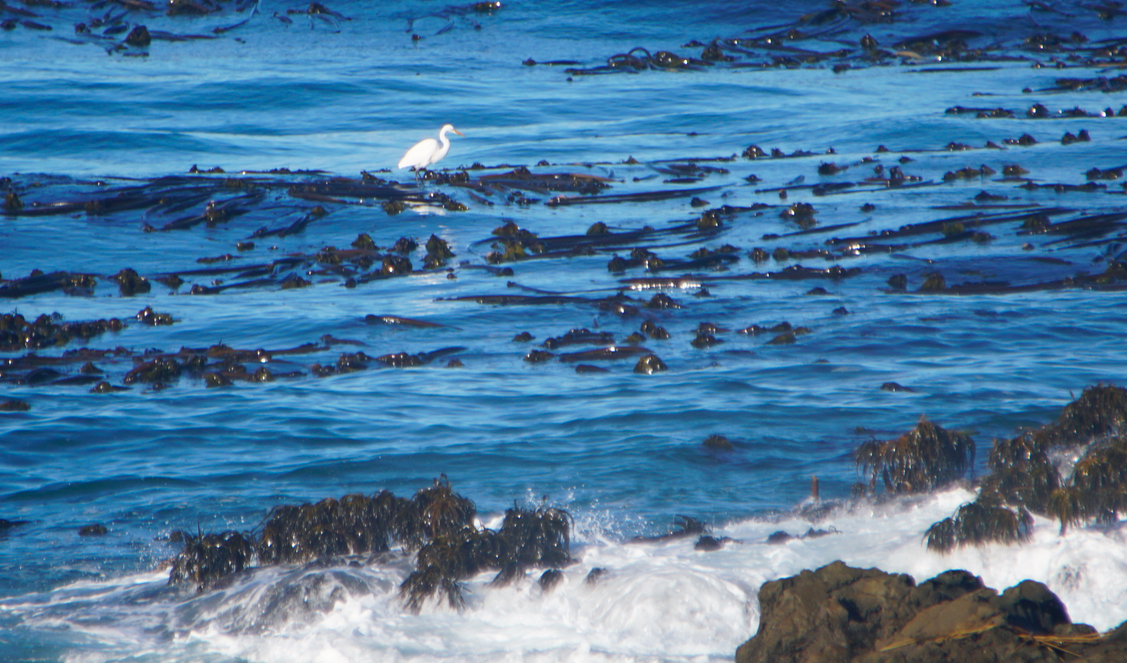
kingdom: Animalia
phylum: Chordata
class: Aves
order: Pelecaniformes
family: Ardeidae
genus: Ardea
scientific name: Ardea alba
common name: Great egret
